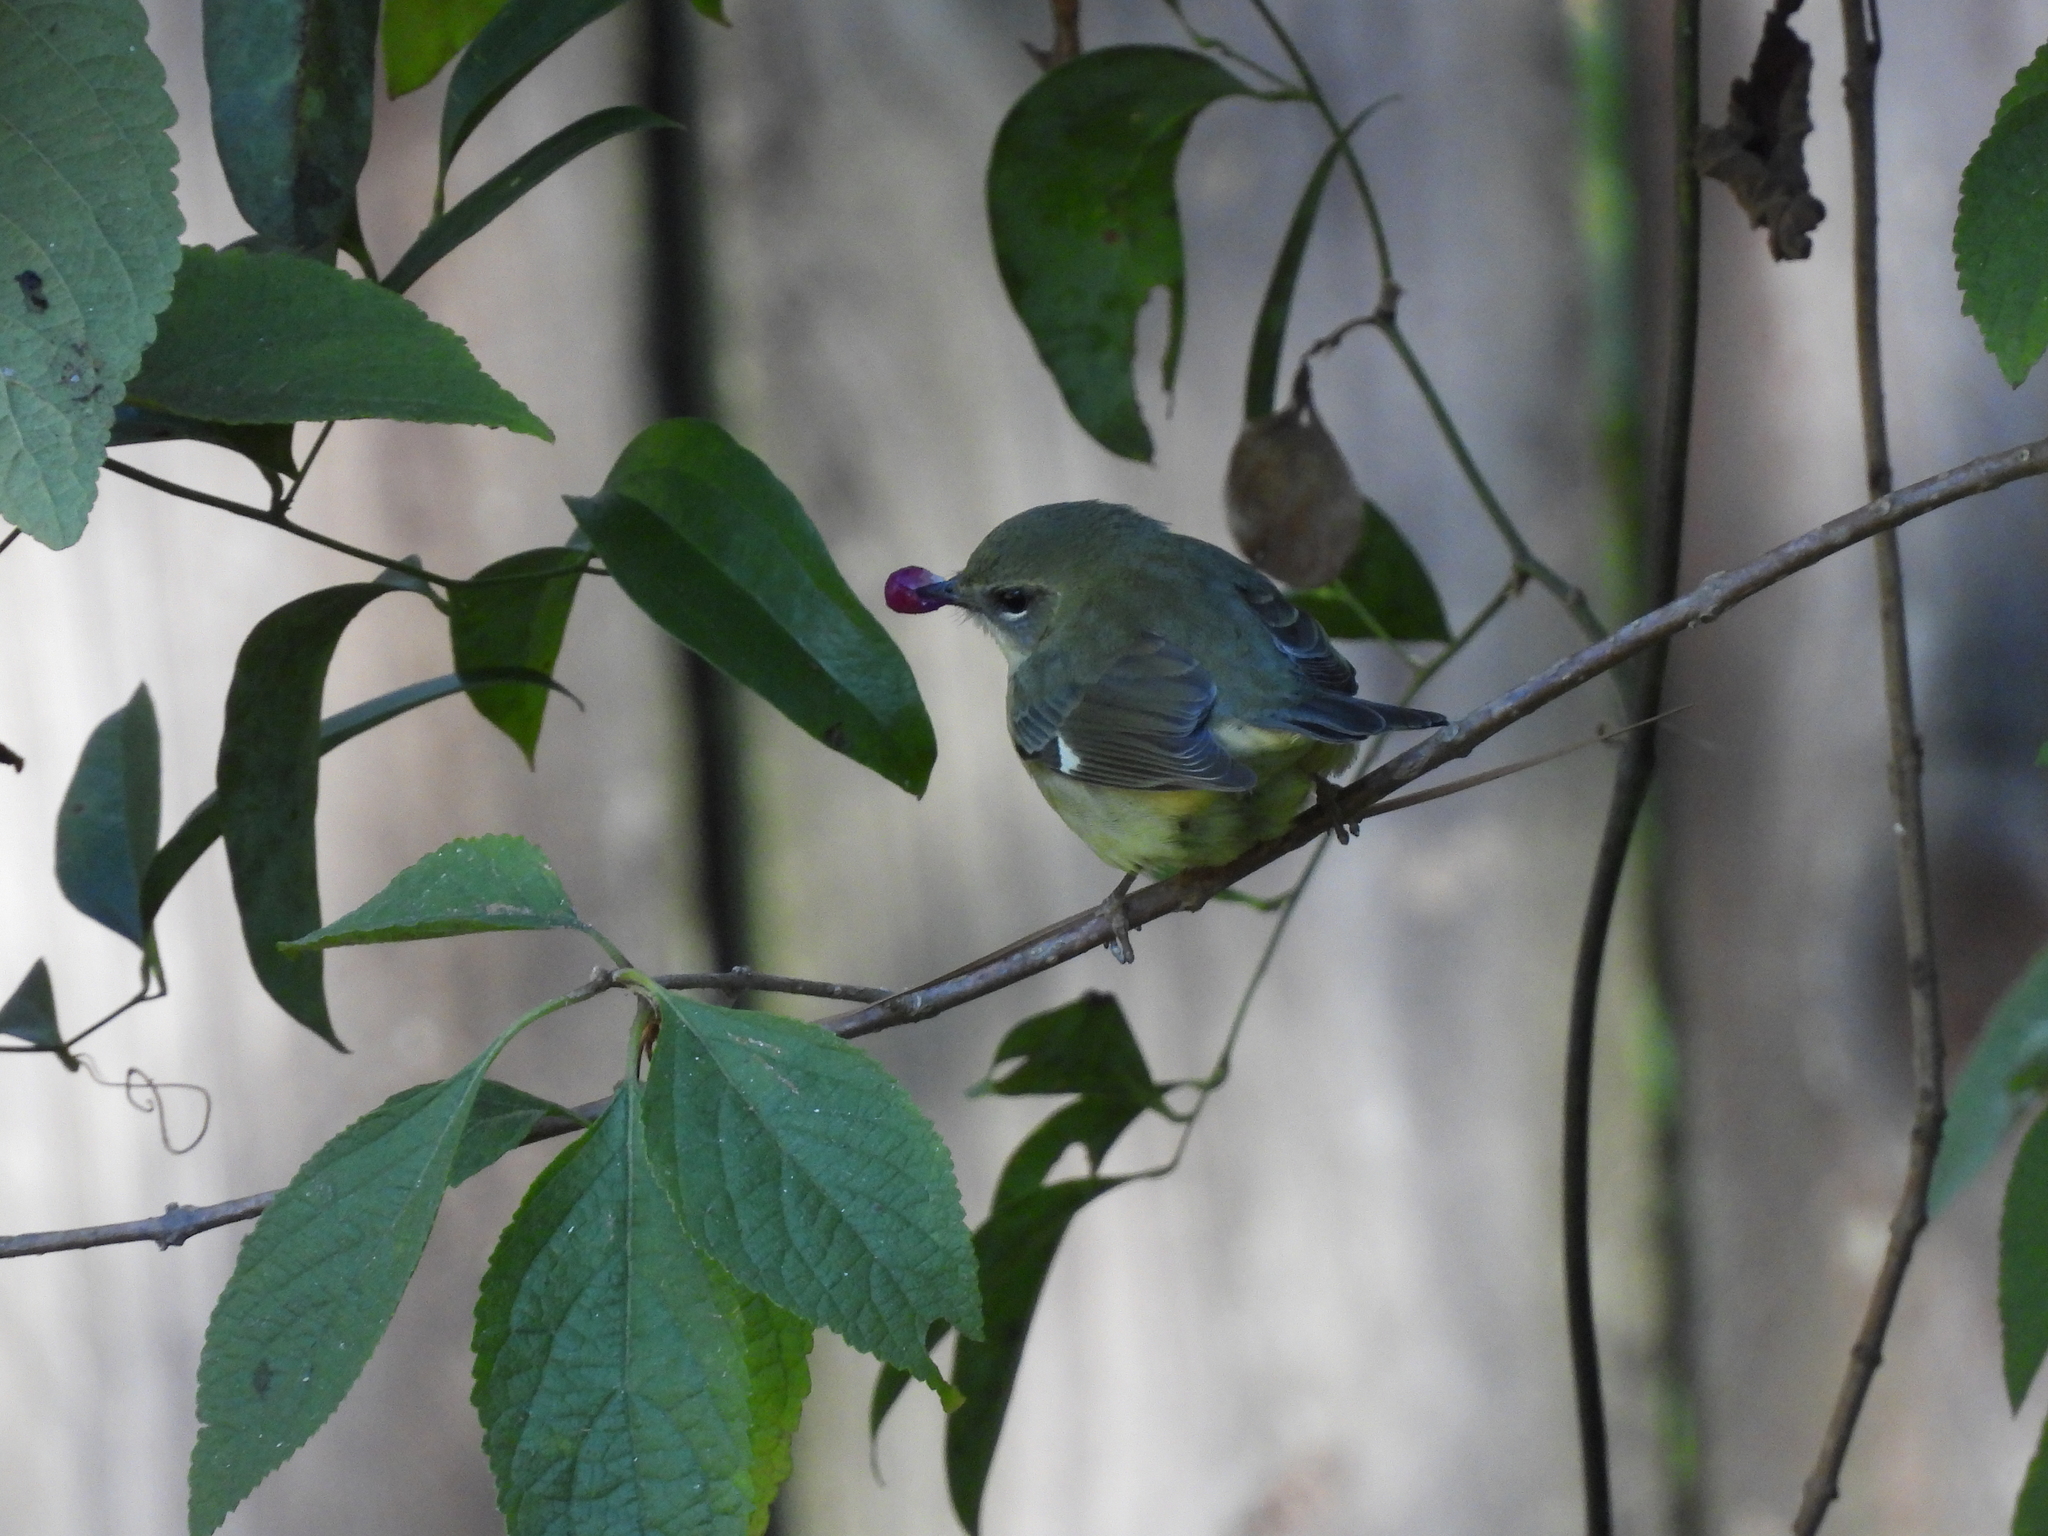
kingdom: Animalia
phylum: Chordata
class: Aves
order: Passeriformes
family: Parulidae
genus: Setophaga
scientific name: Setophaga caerulescens
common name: Black-throated blue warbler
